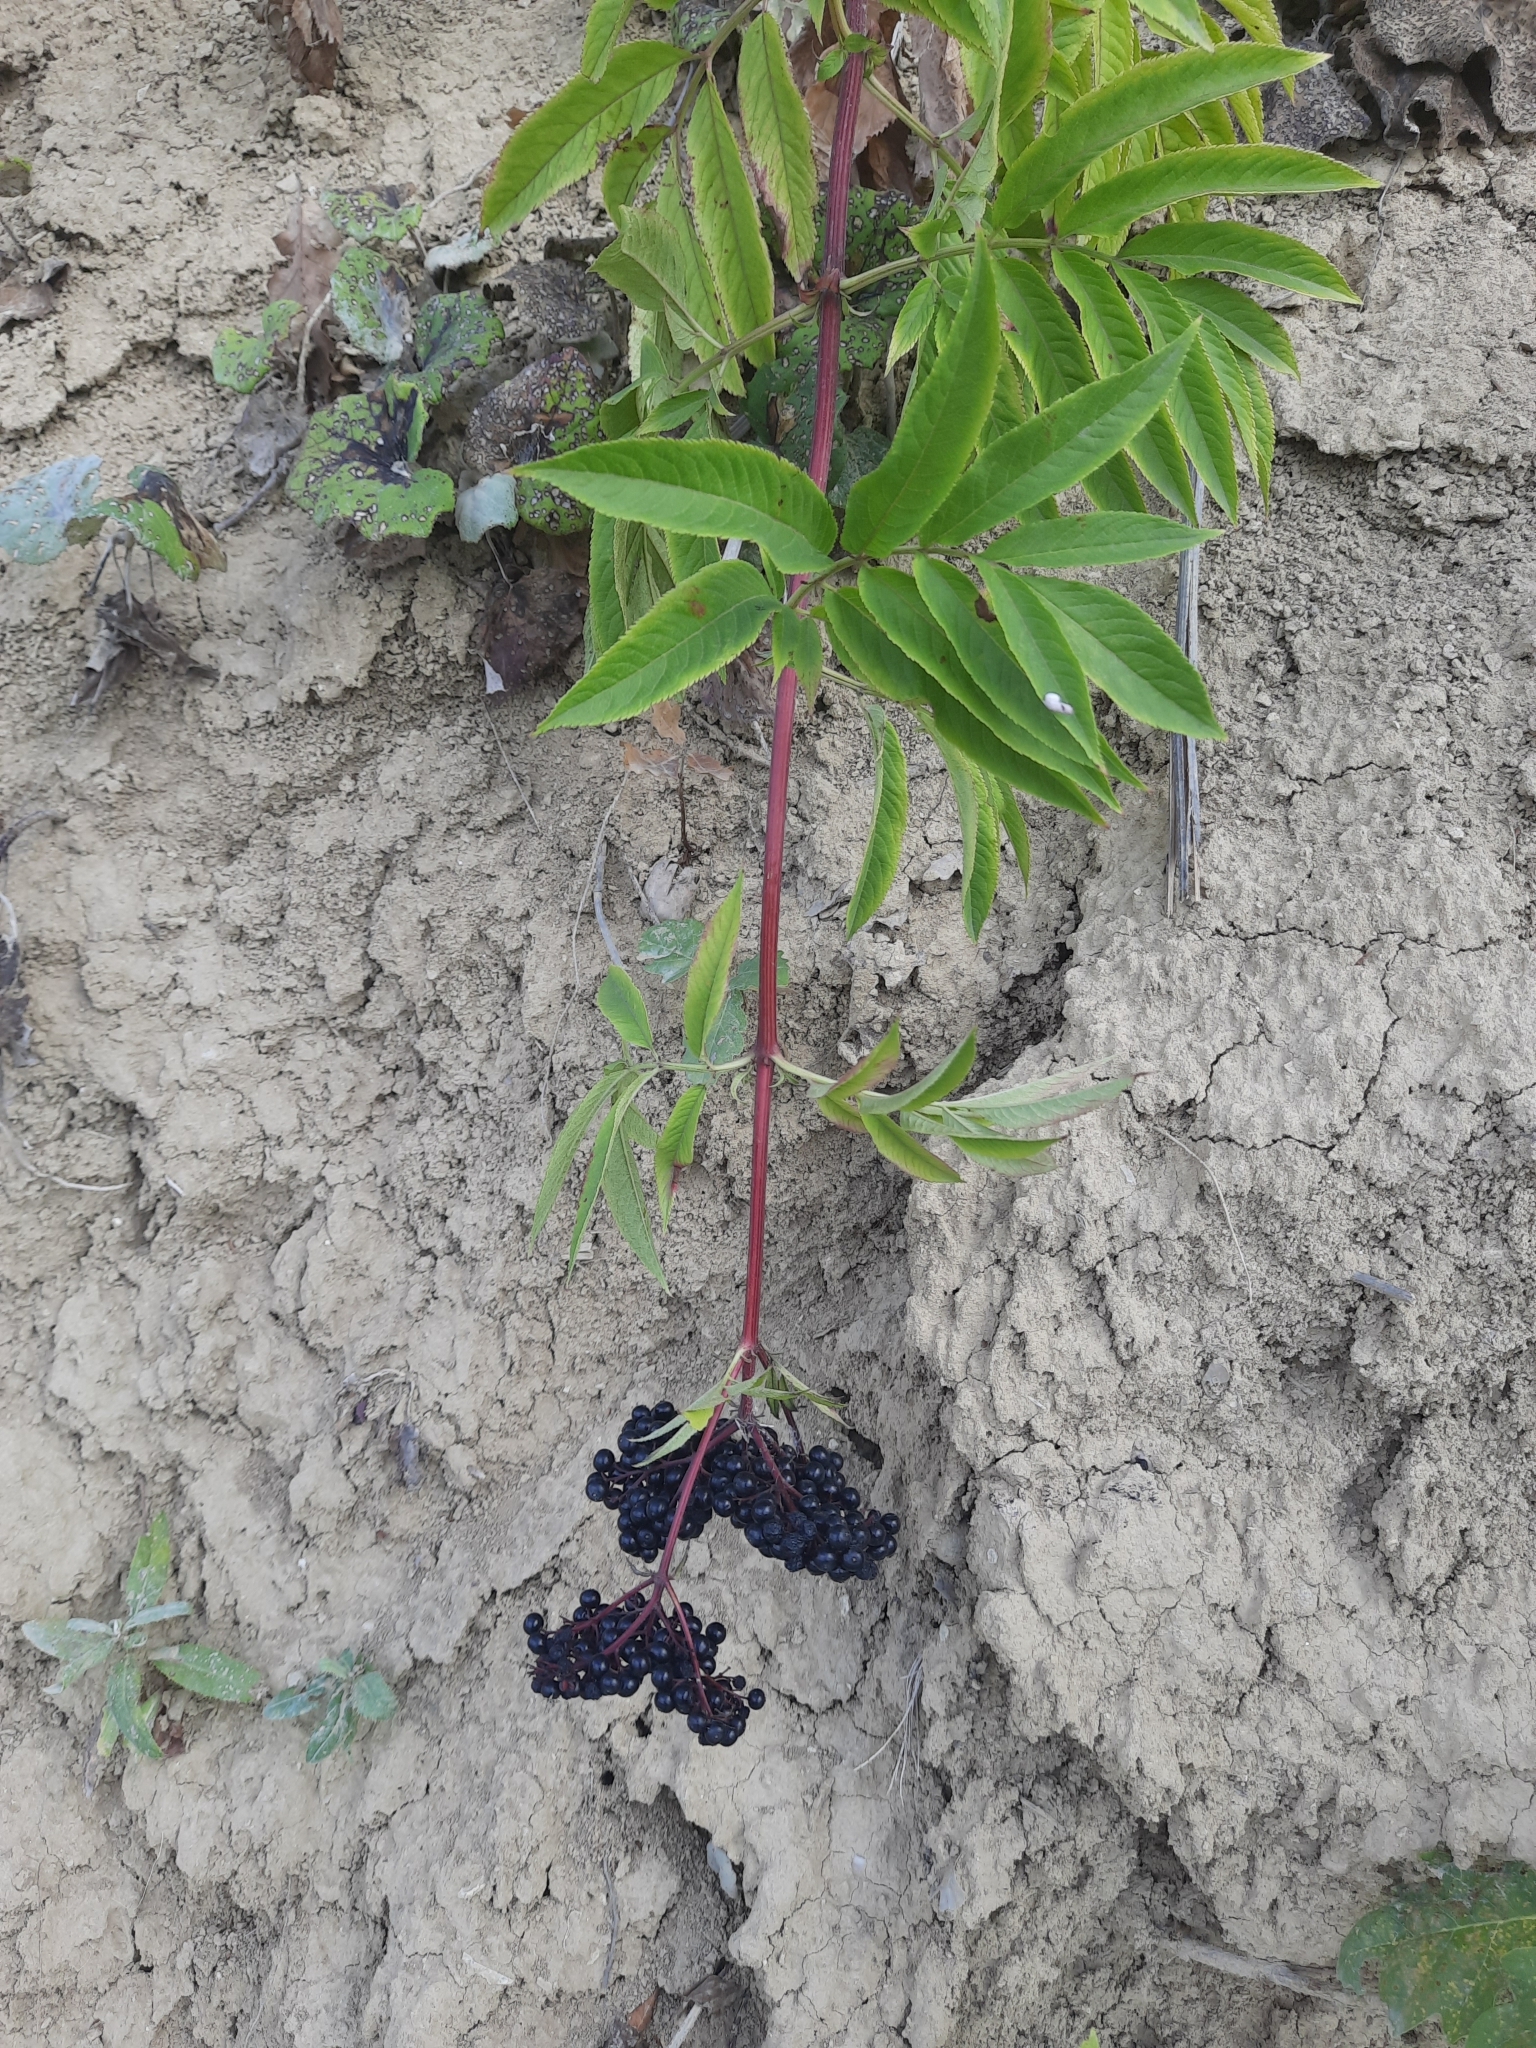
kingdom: Plantae
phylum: Tracheophyta
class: Magnoliopsida
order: Dipsacales
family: Viburnaceae
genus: Sambucus
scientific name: Sambucus ebulus
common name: Dwarf elder
